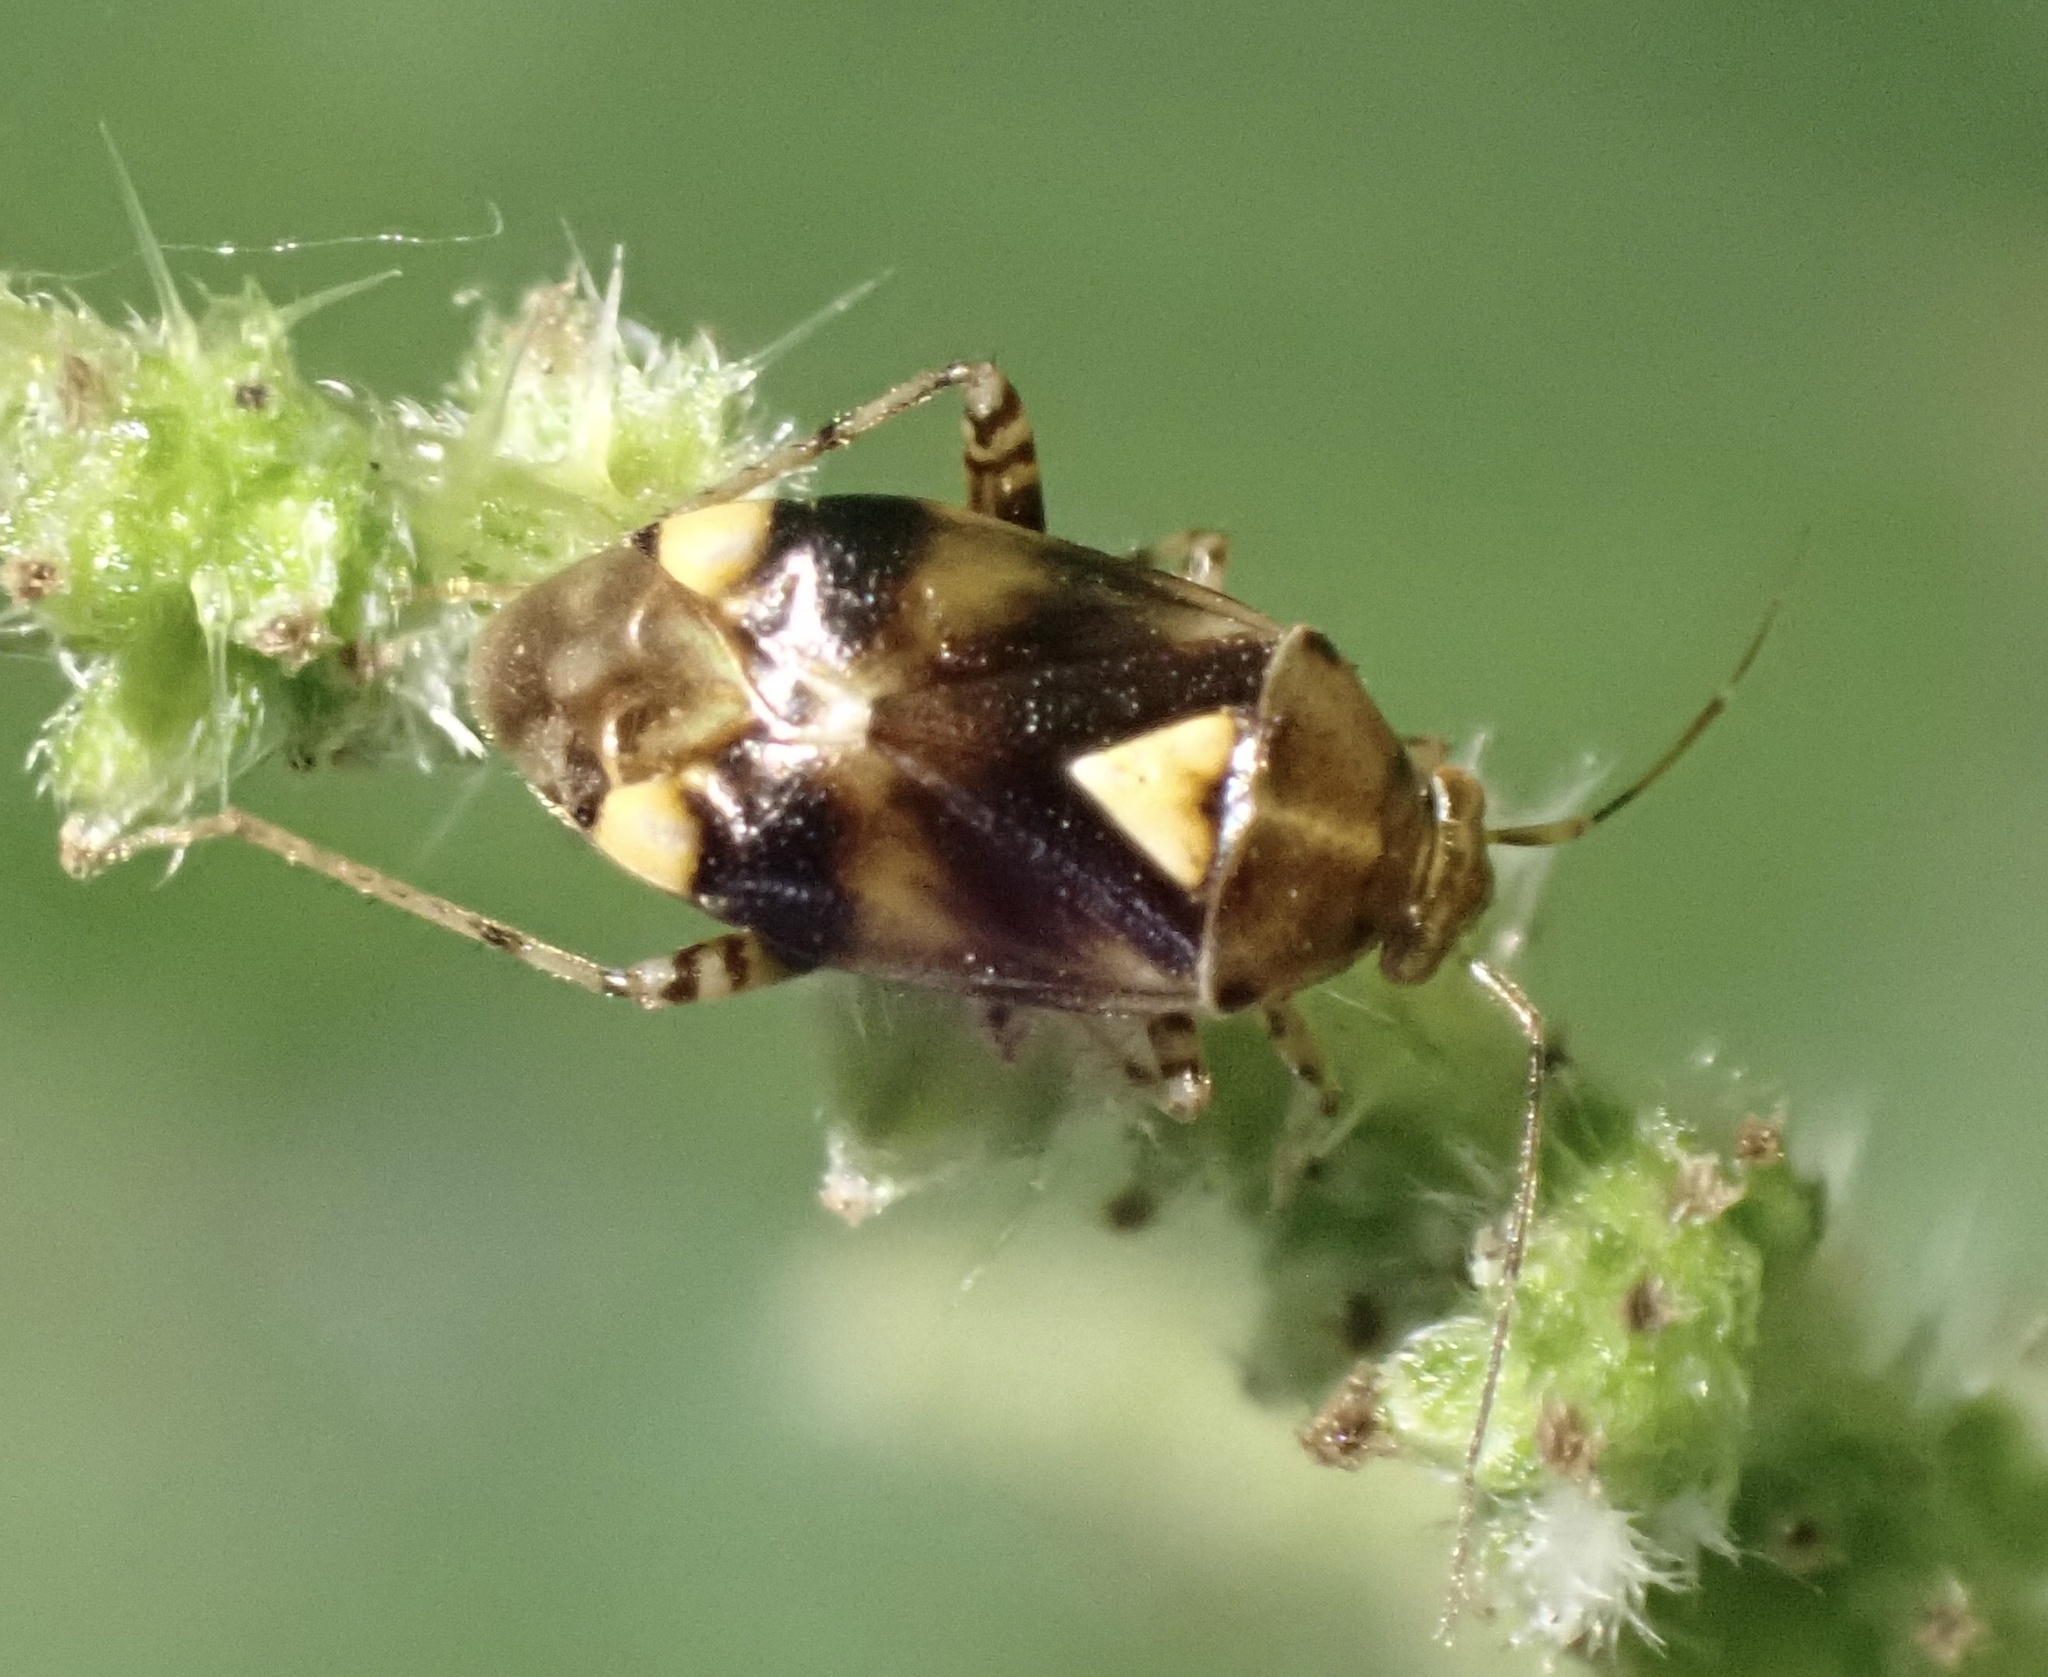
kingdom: Animalia
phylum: Arthropoda
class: Insecta
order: Hemiptera
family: Miridae
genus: Liocoris
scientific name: Liocoris tripustulatus
